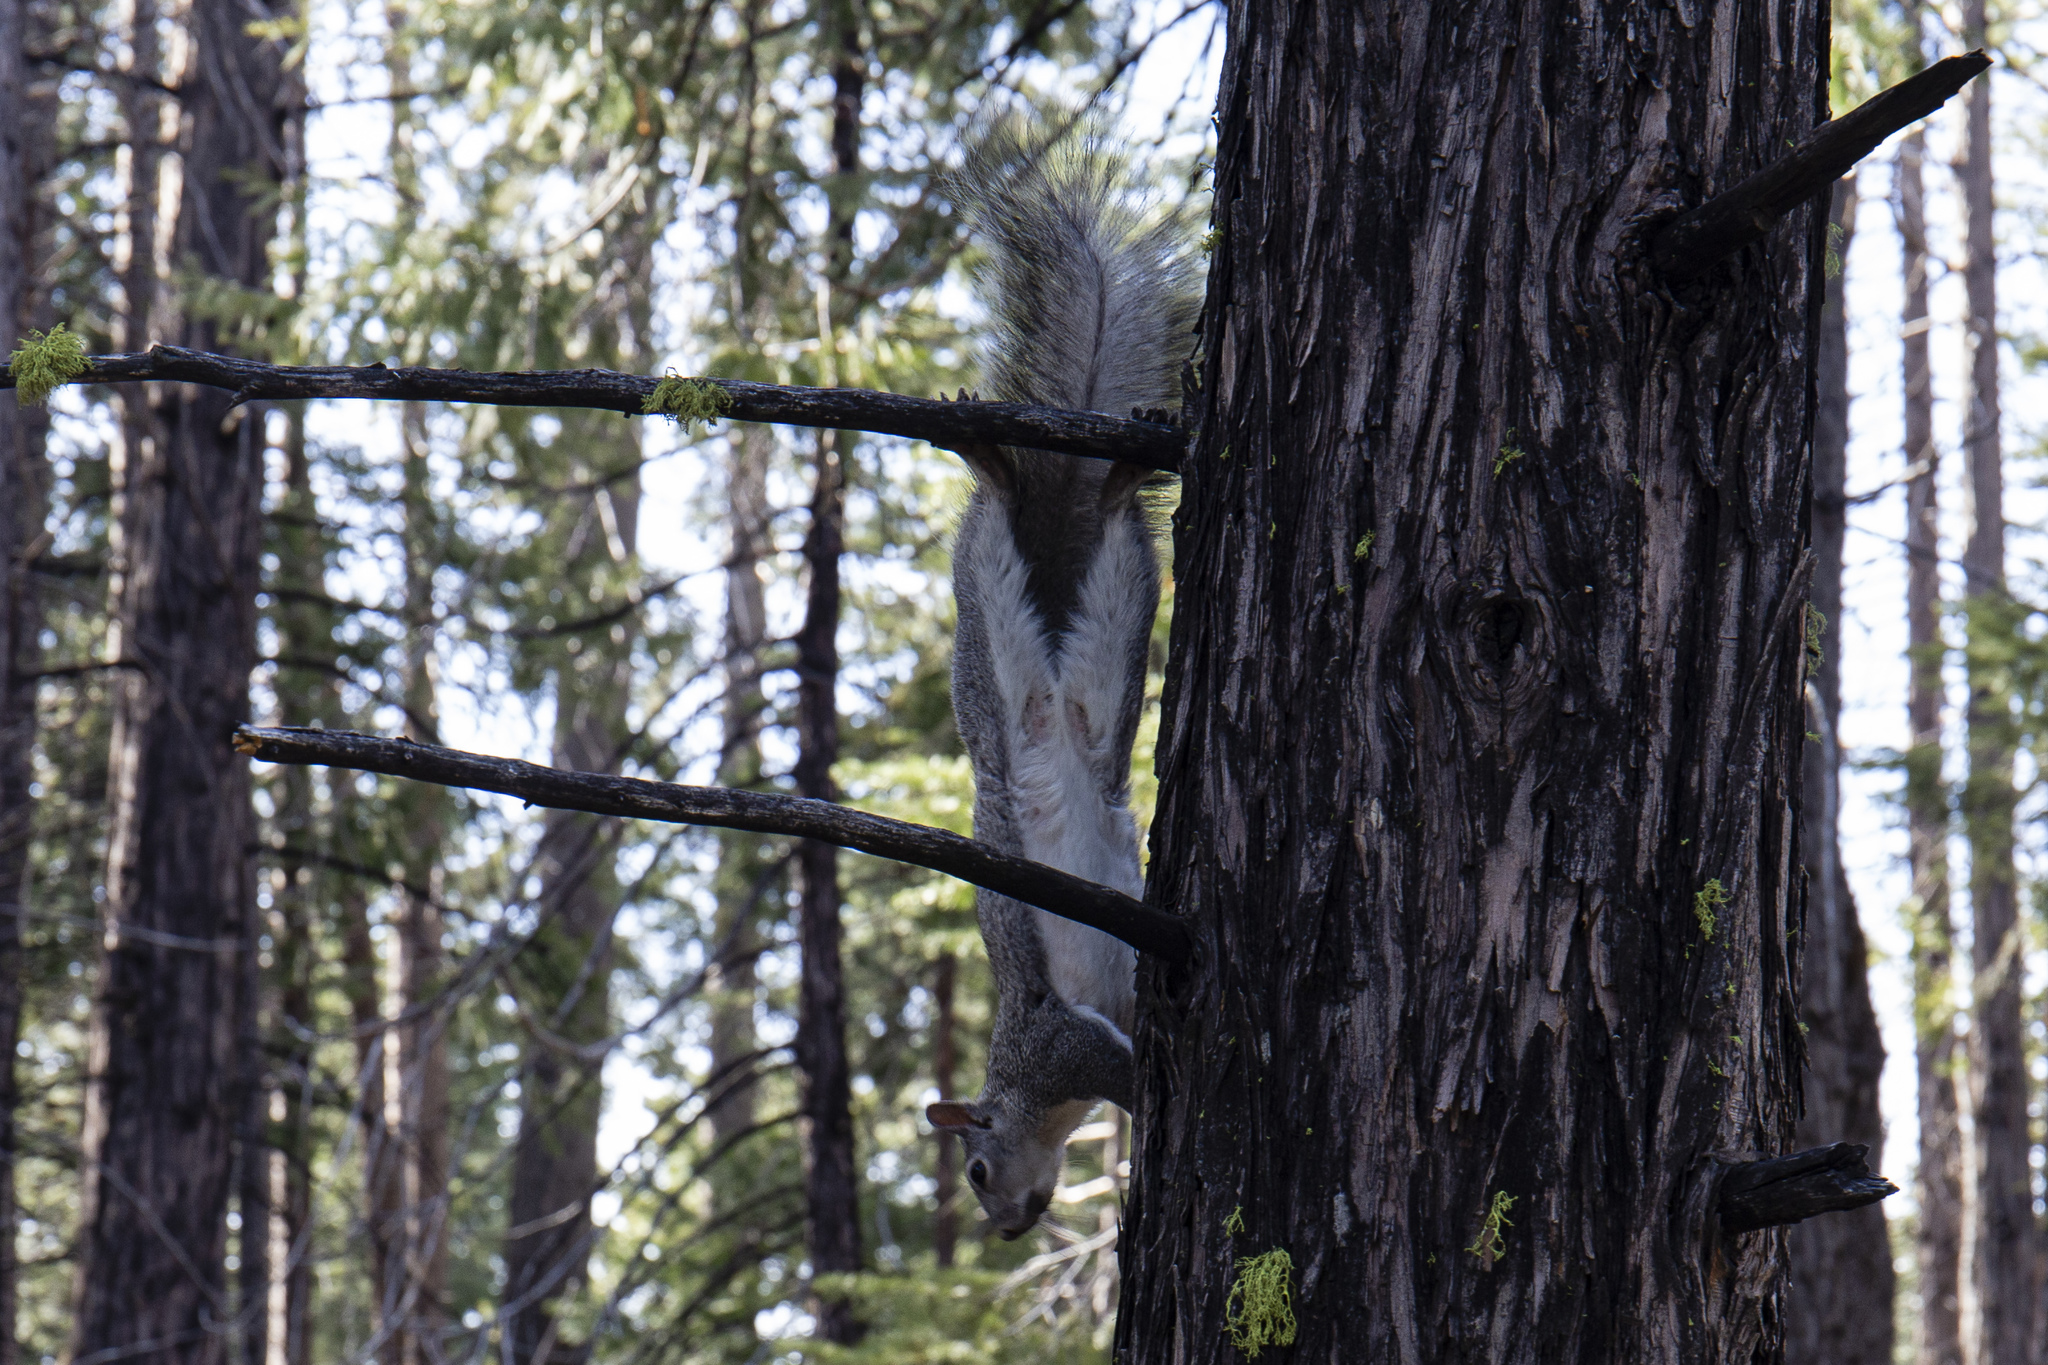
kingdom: Animalia
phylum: Chordata
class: Mammalia
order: Rodentia
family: Sciuridae
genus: Sciurus
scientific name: Sciurus griseus
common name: Western gray squirrel
